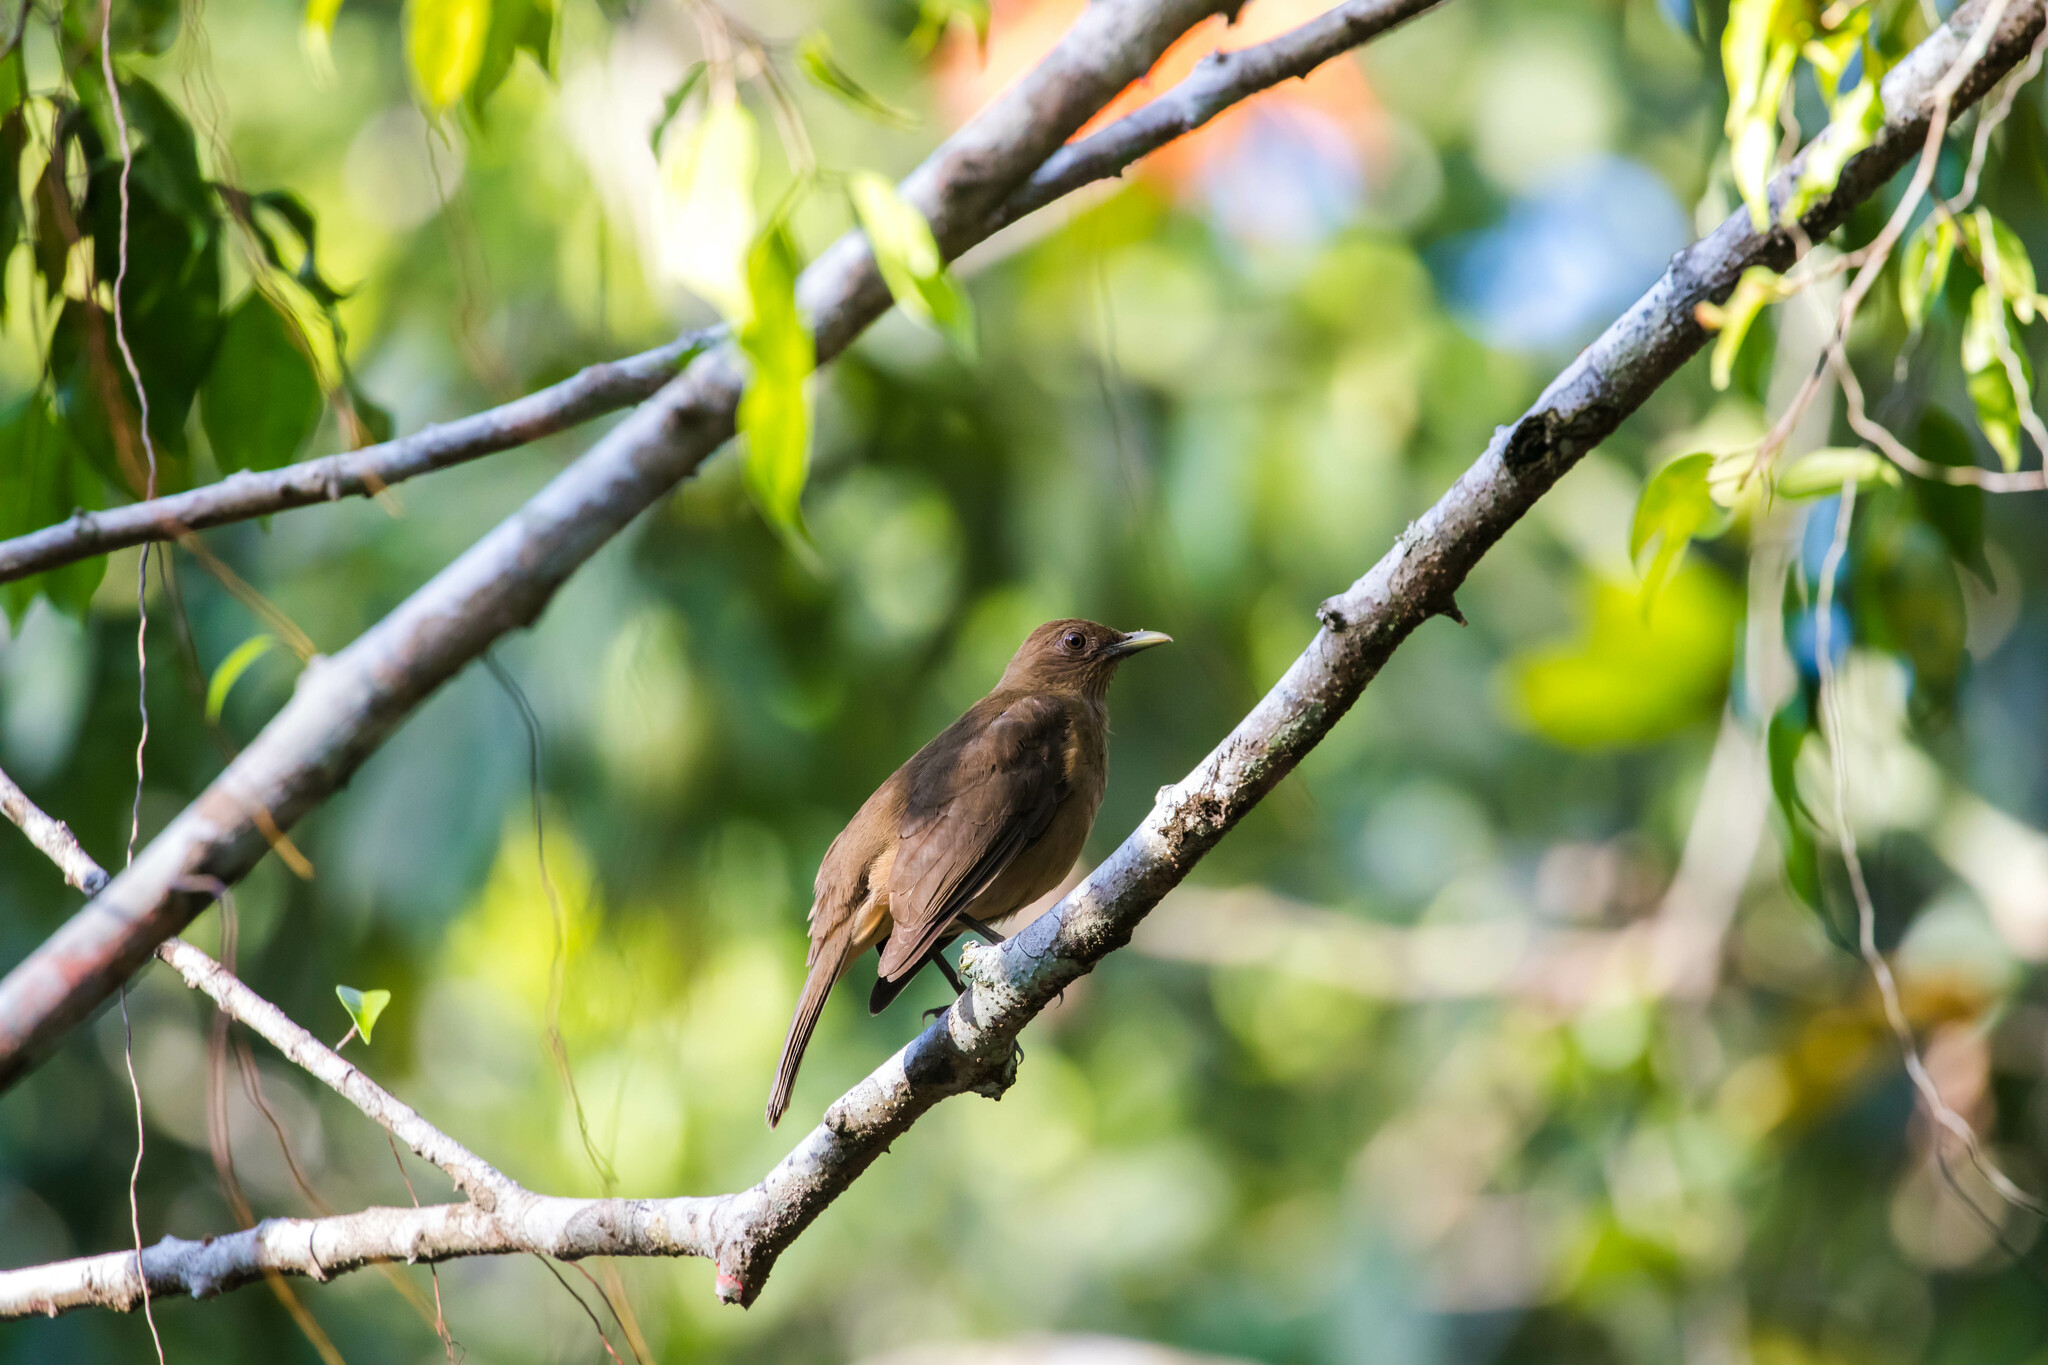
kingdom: Animalia
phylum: Chordata
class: Aves
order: Passeriformes
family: Turdidae
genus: Turdus
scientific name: Turdus grayi
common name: Clay-colored thrush
